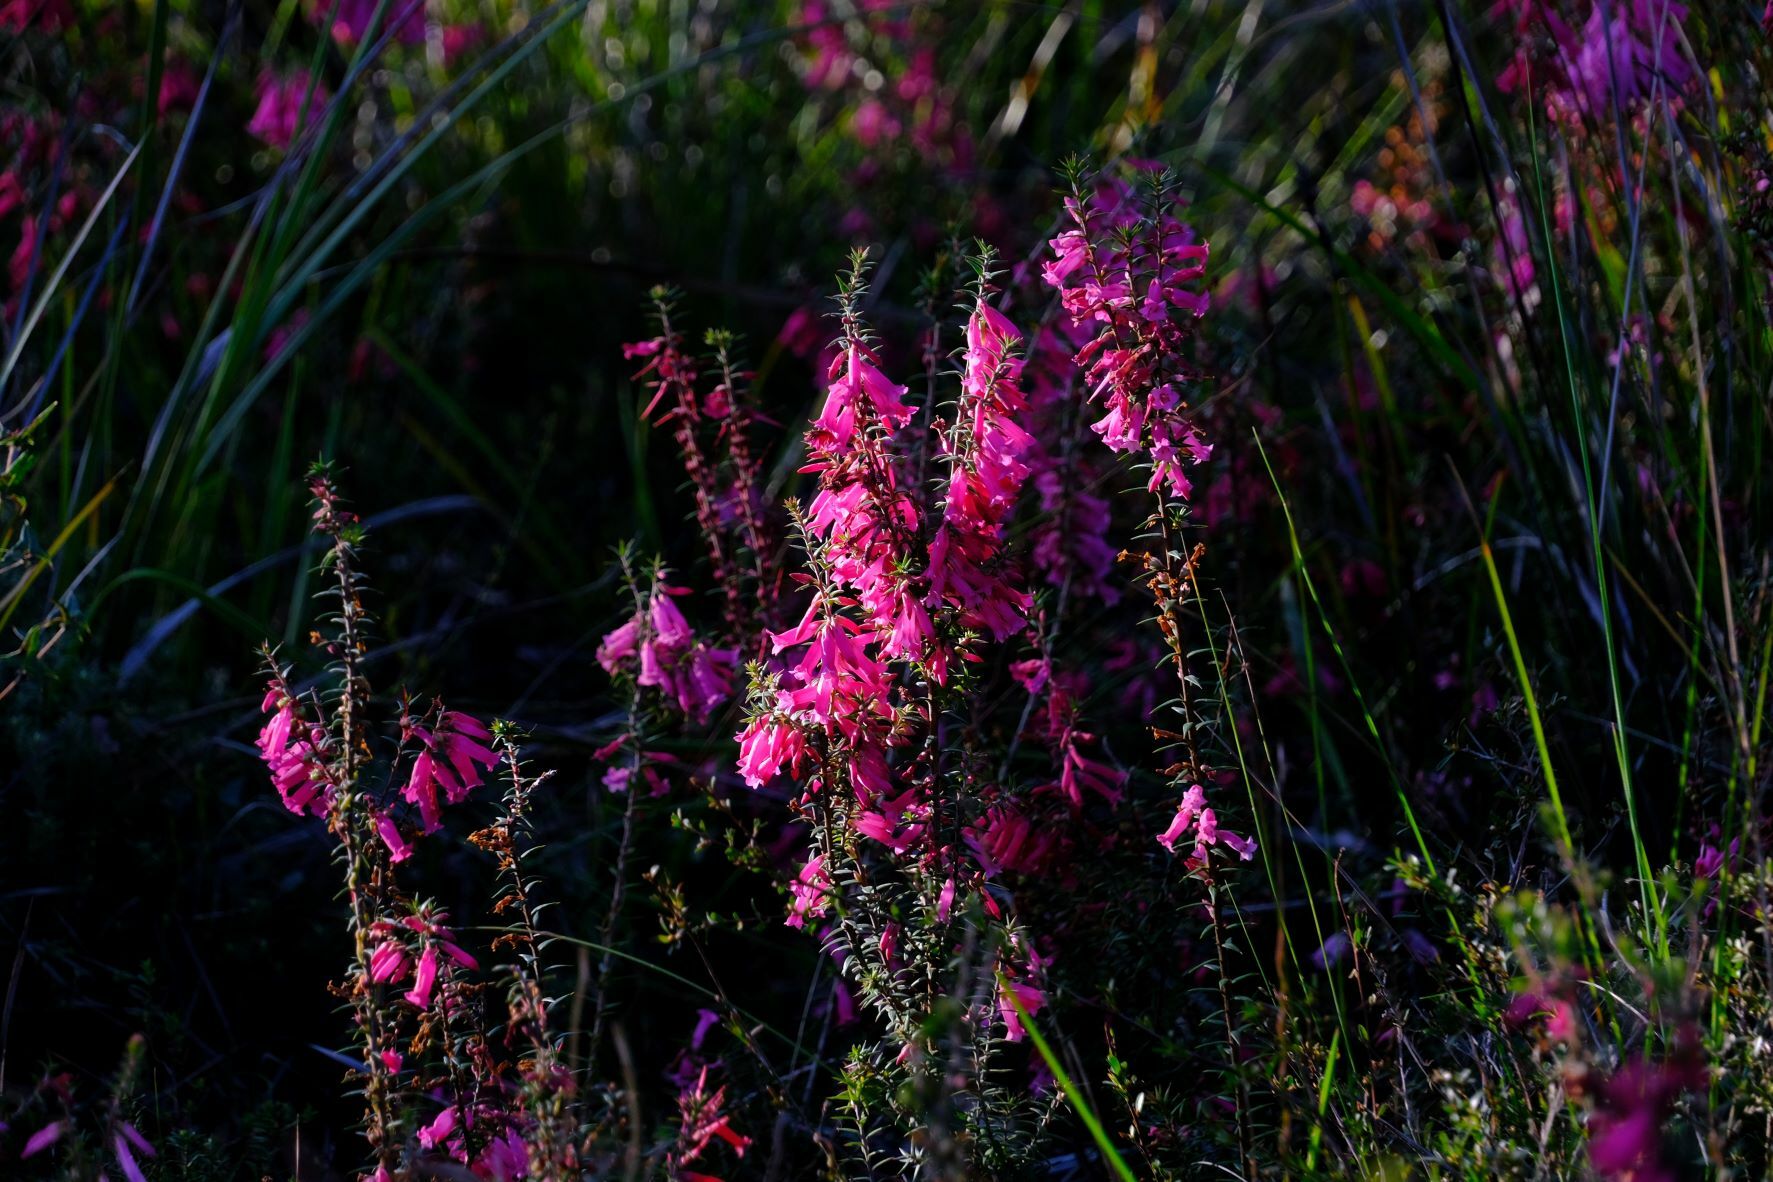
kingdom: Plantae
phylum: Tracheophyta
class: Magnoliopsida
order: Ericales
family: Ericaceae
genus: Epacris
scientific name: Epacris impressa
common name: Common-heath
